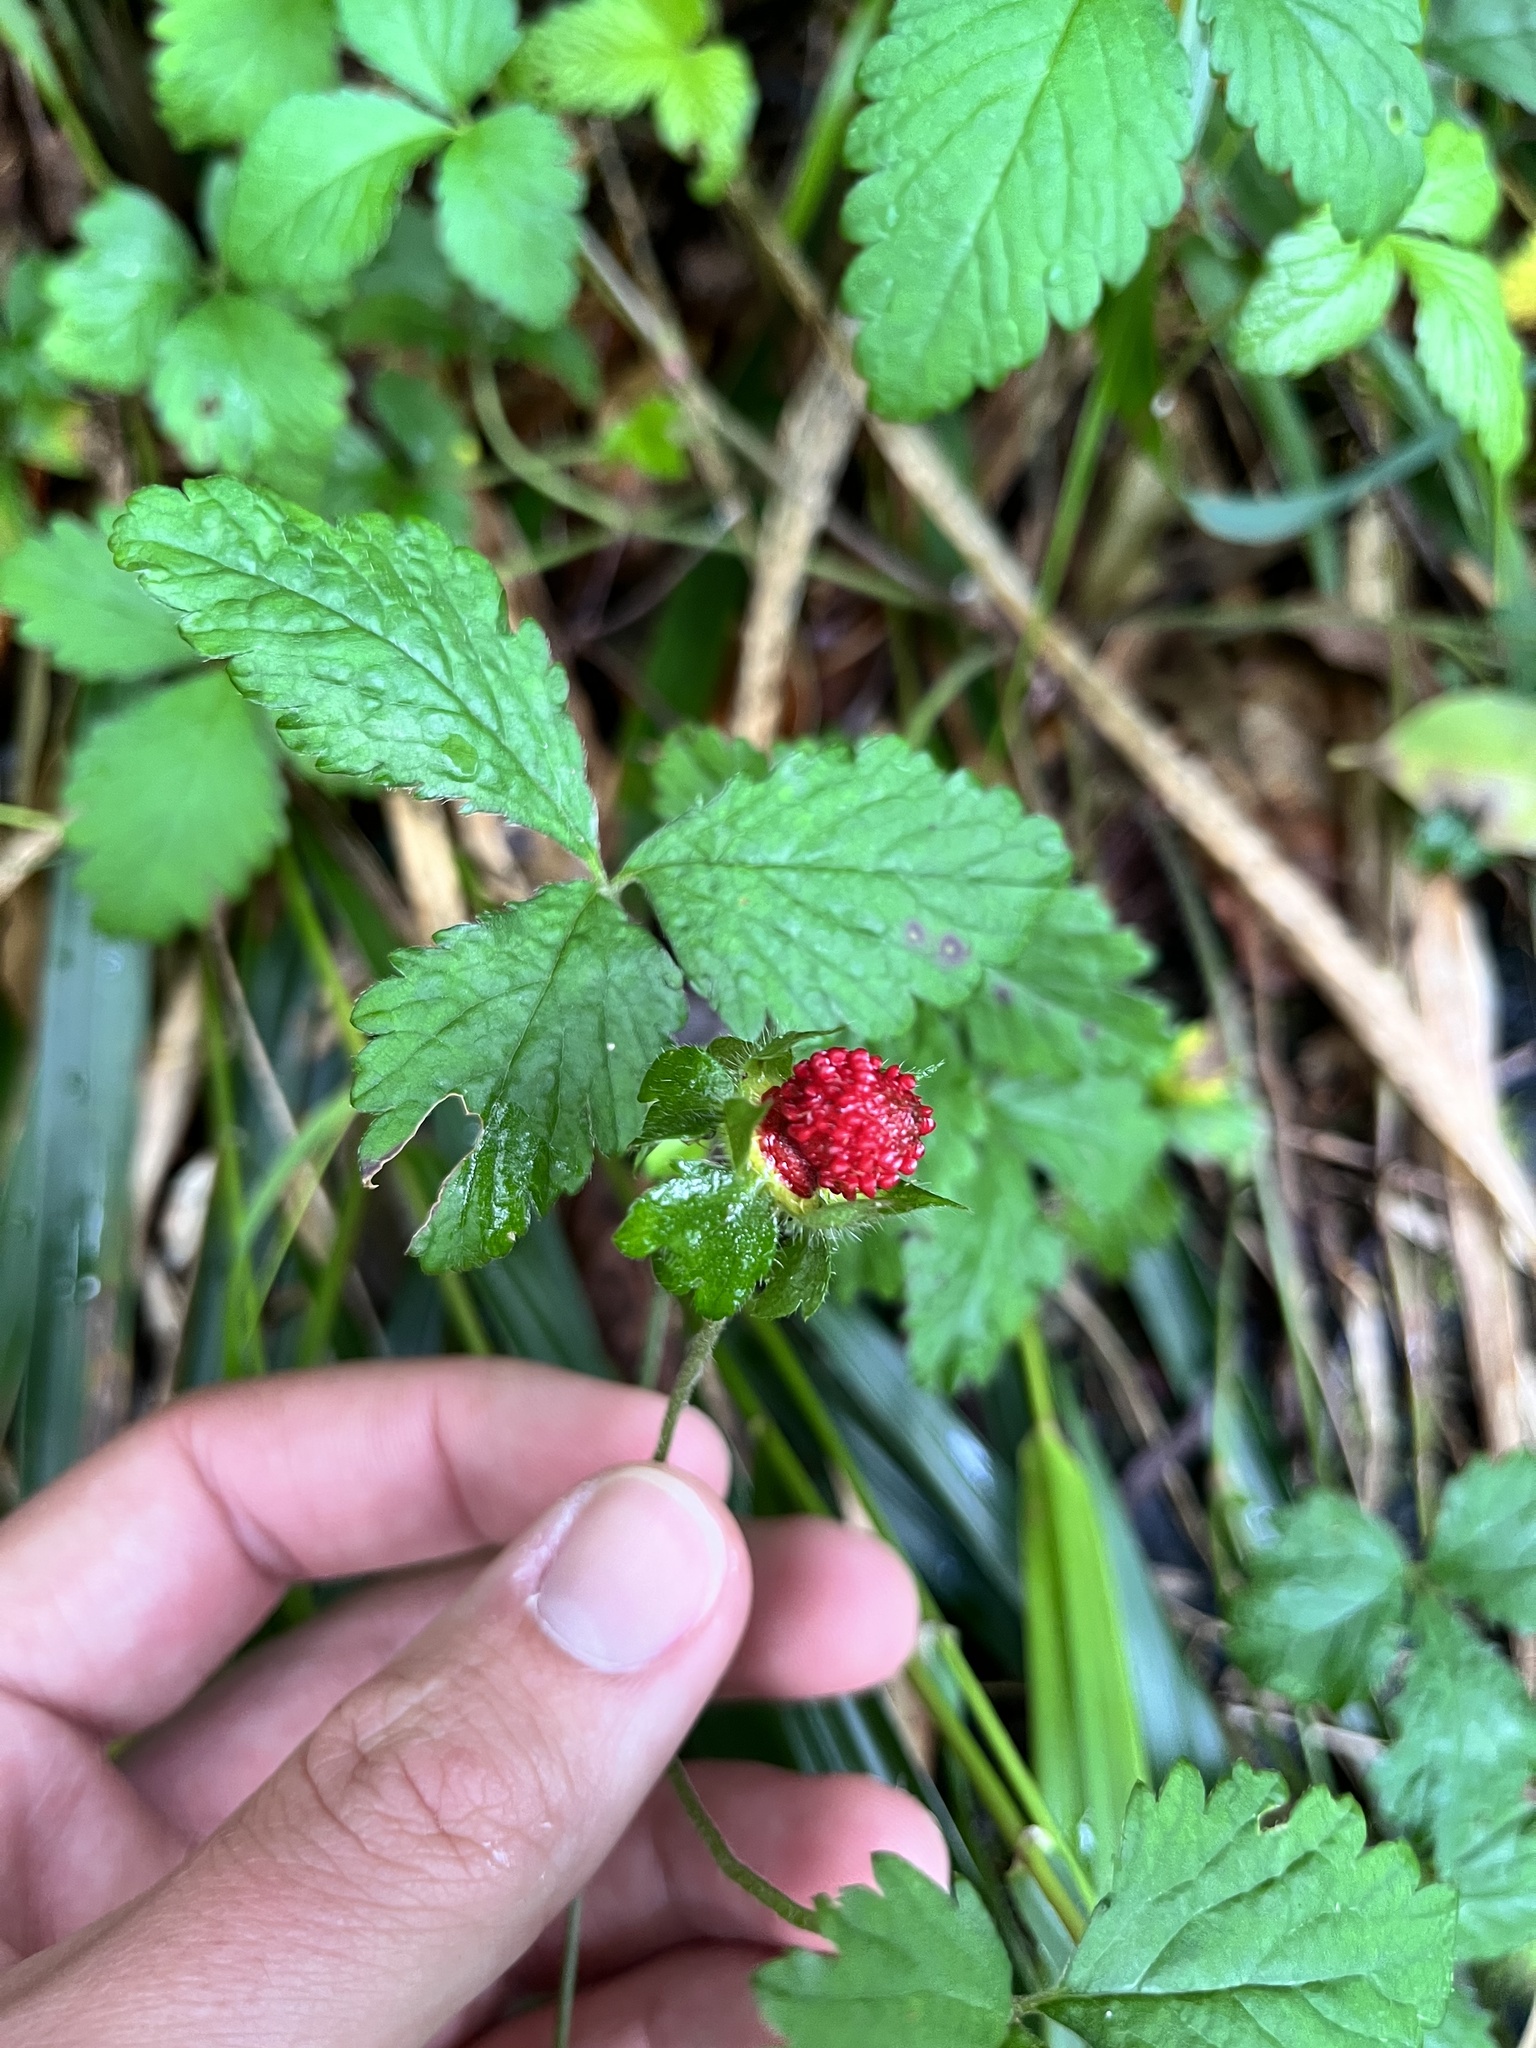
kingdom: Plantae
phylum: Tracheophyta
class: Magnoliopsida
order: Rosales
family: Rosaceae
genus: Potentilla
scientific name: Potentilla indica
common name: Yellow-flowered strawberry
